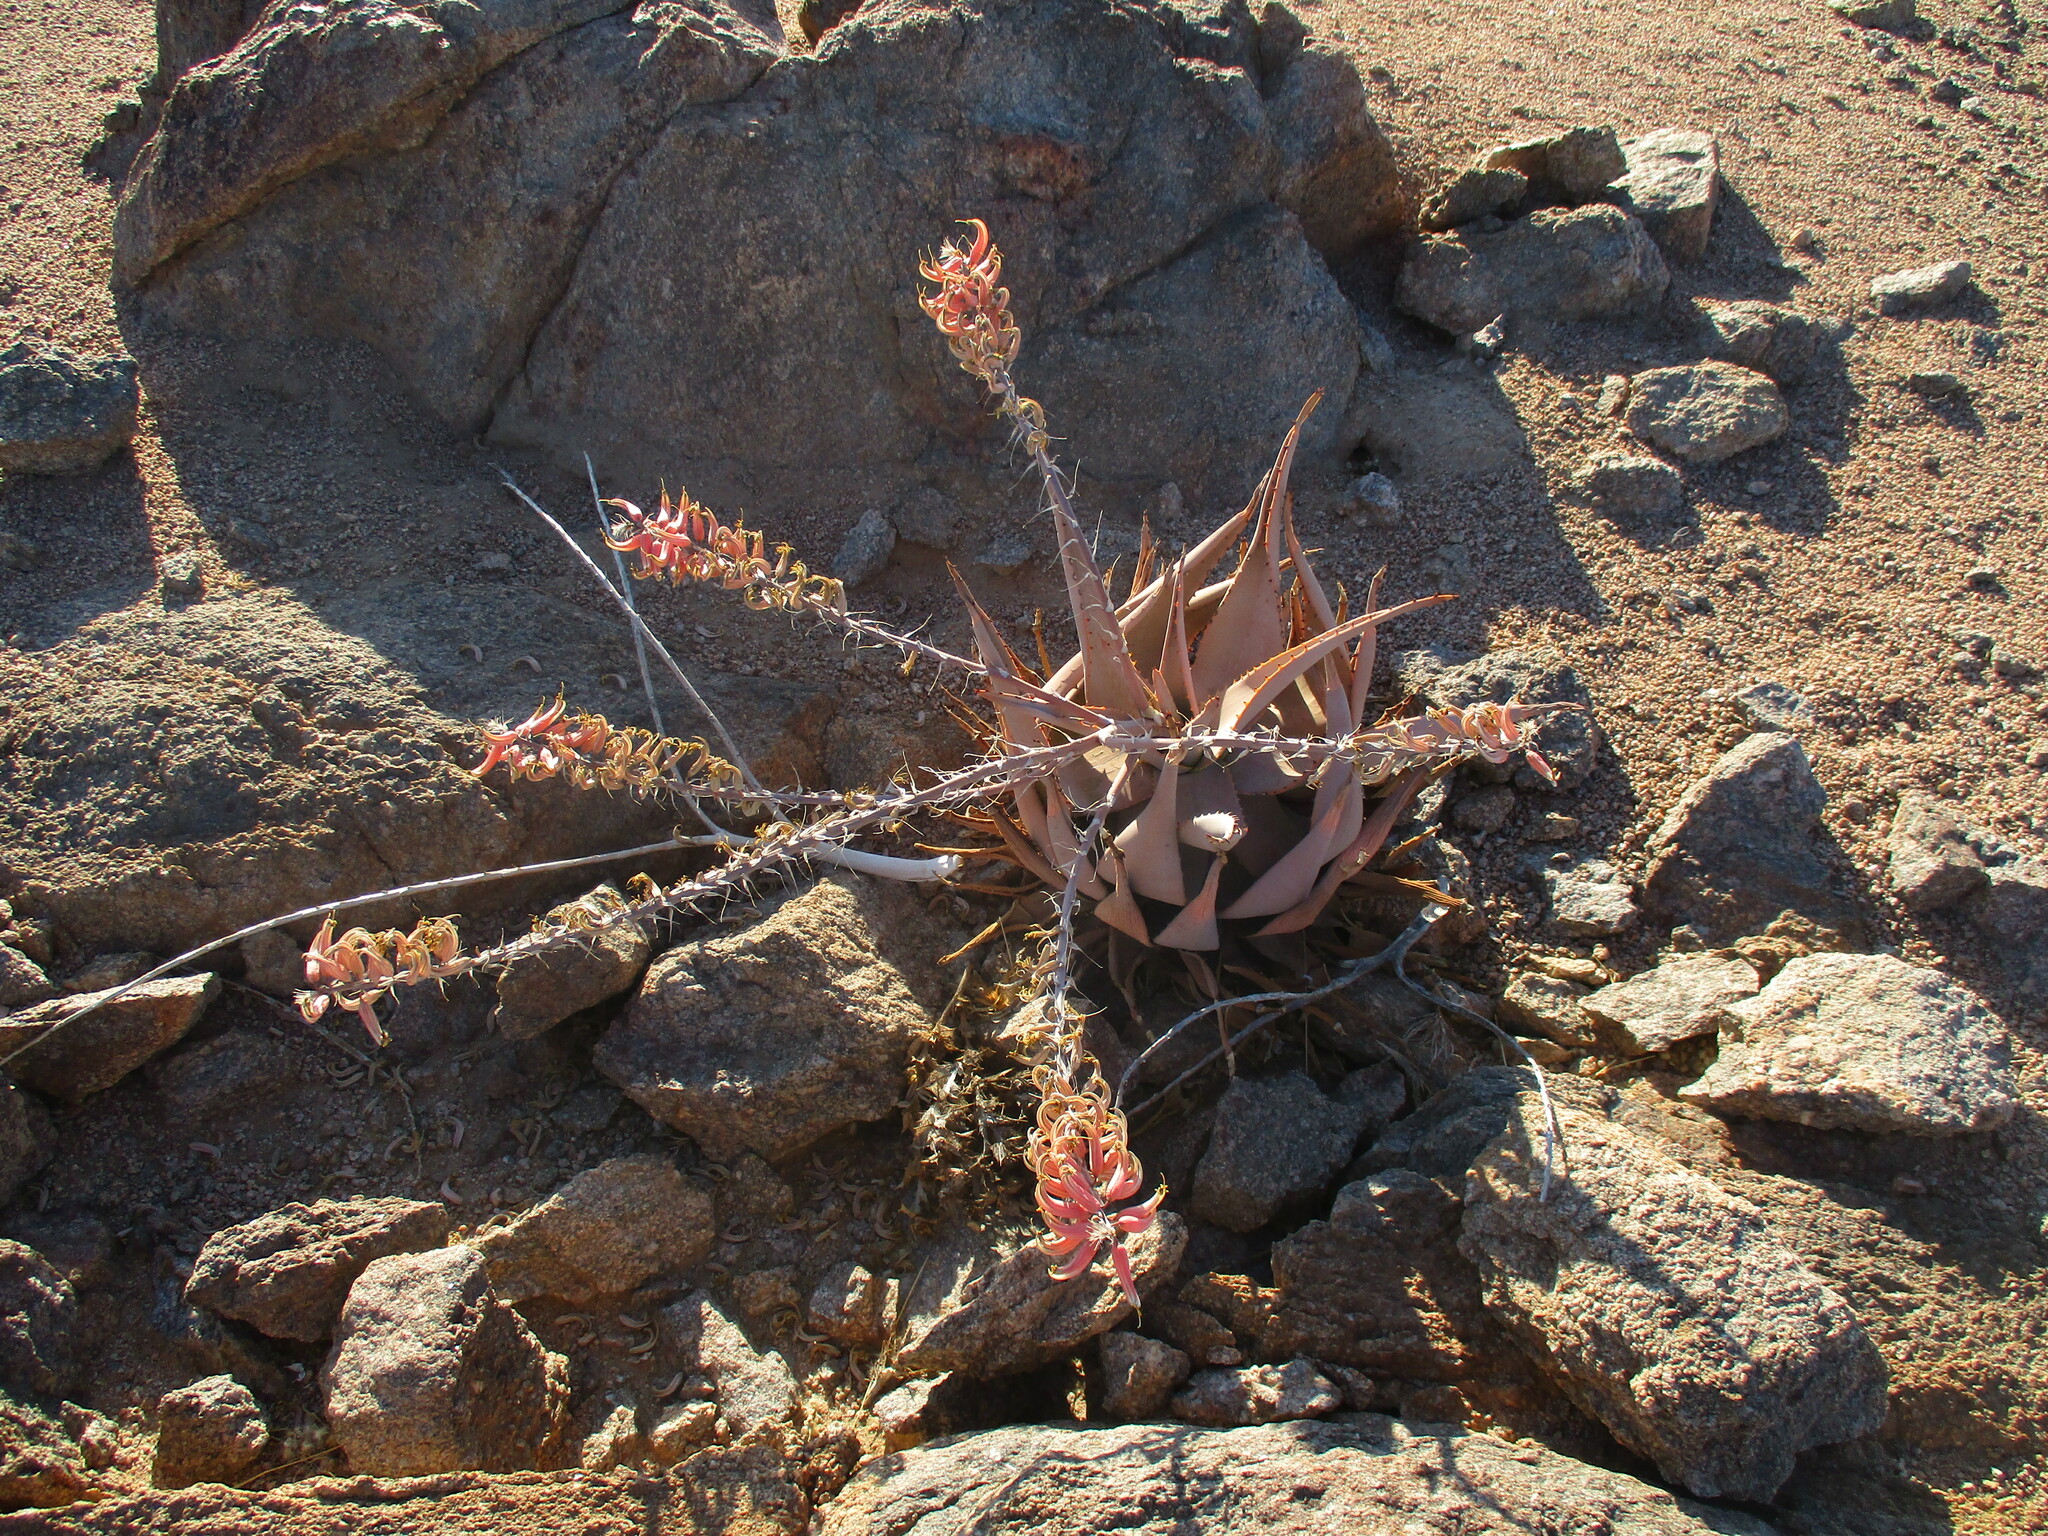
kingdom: Plantae
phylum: Tracheophyta
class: Liliopsida
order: Asparagales
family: Asphodelaceae
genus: Aloe
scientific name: Aloe asperifolia
